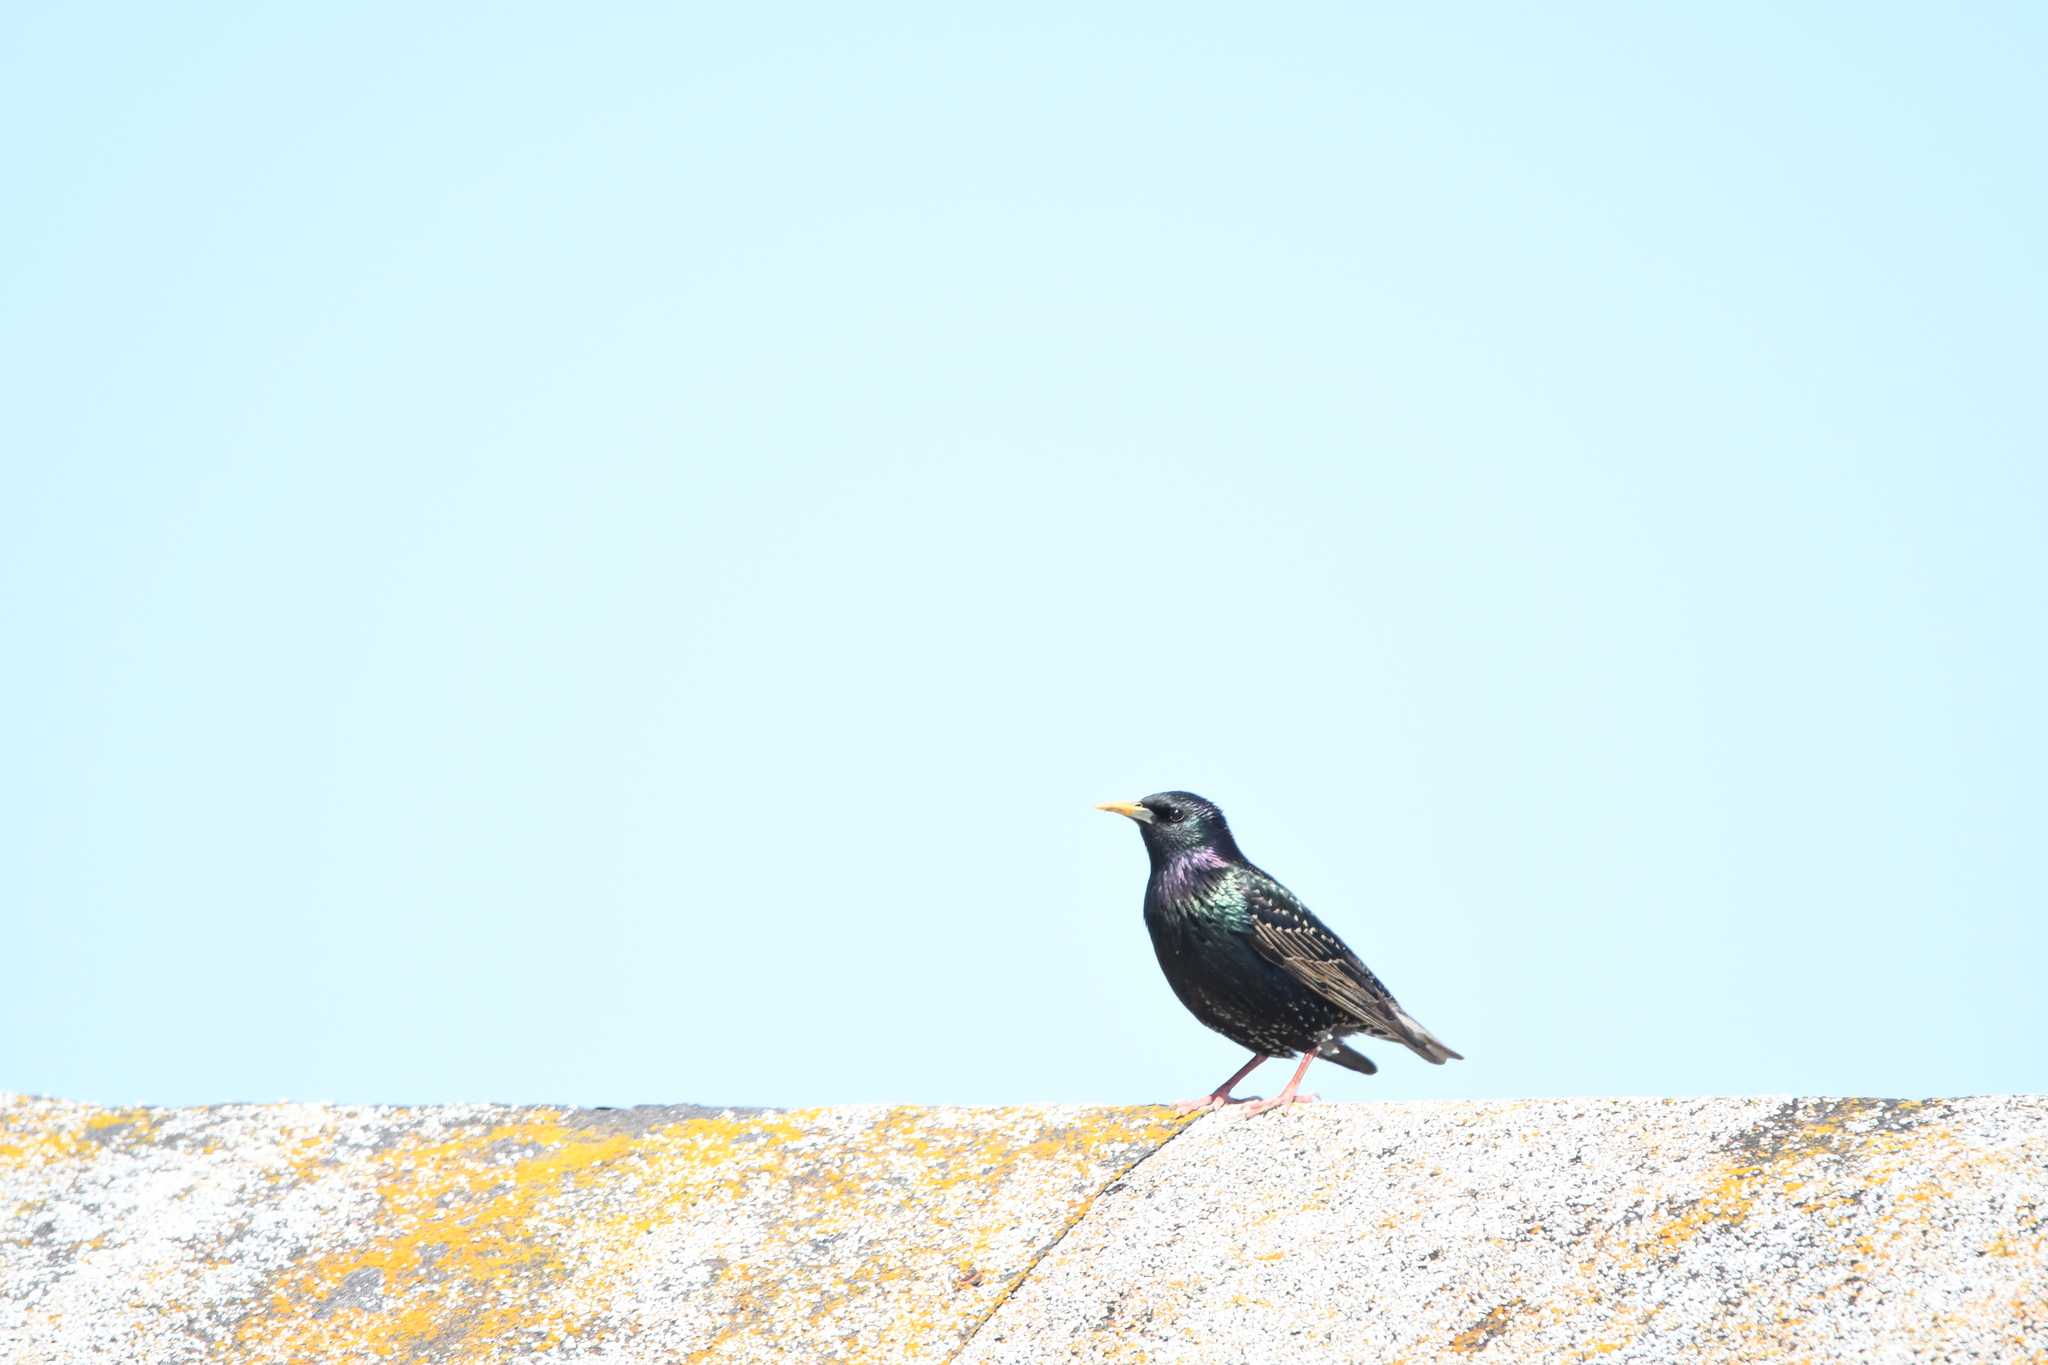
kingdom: Animalia
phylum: Chordata
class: Aves
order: Passeriformes
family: Sturnidae
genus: Sturnus
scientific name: Sturnus vulgaris
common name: Common starling
